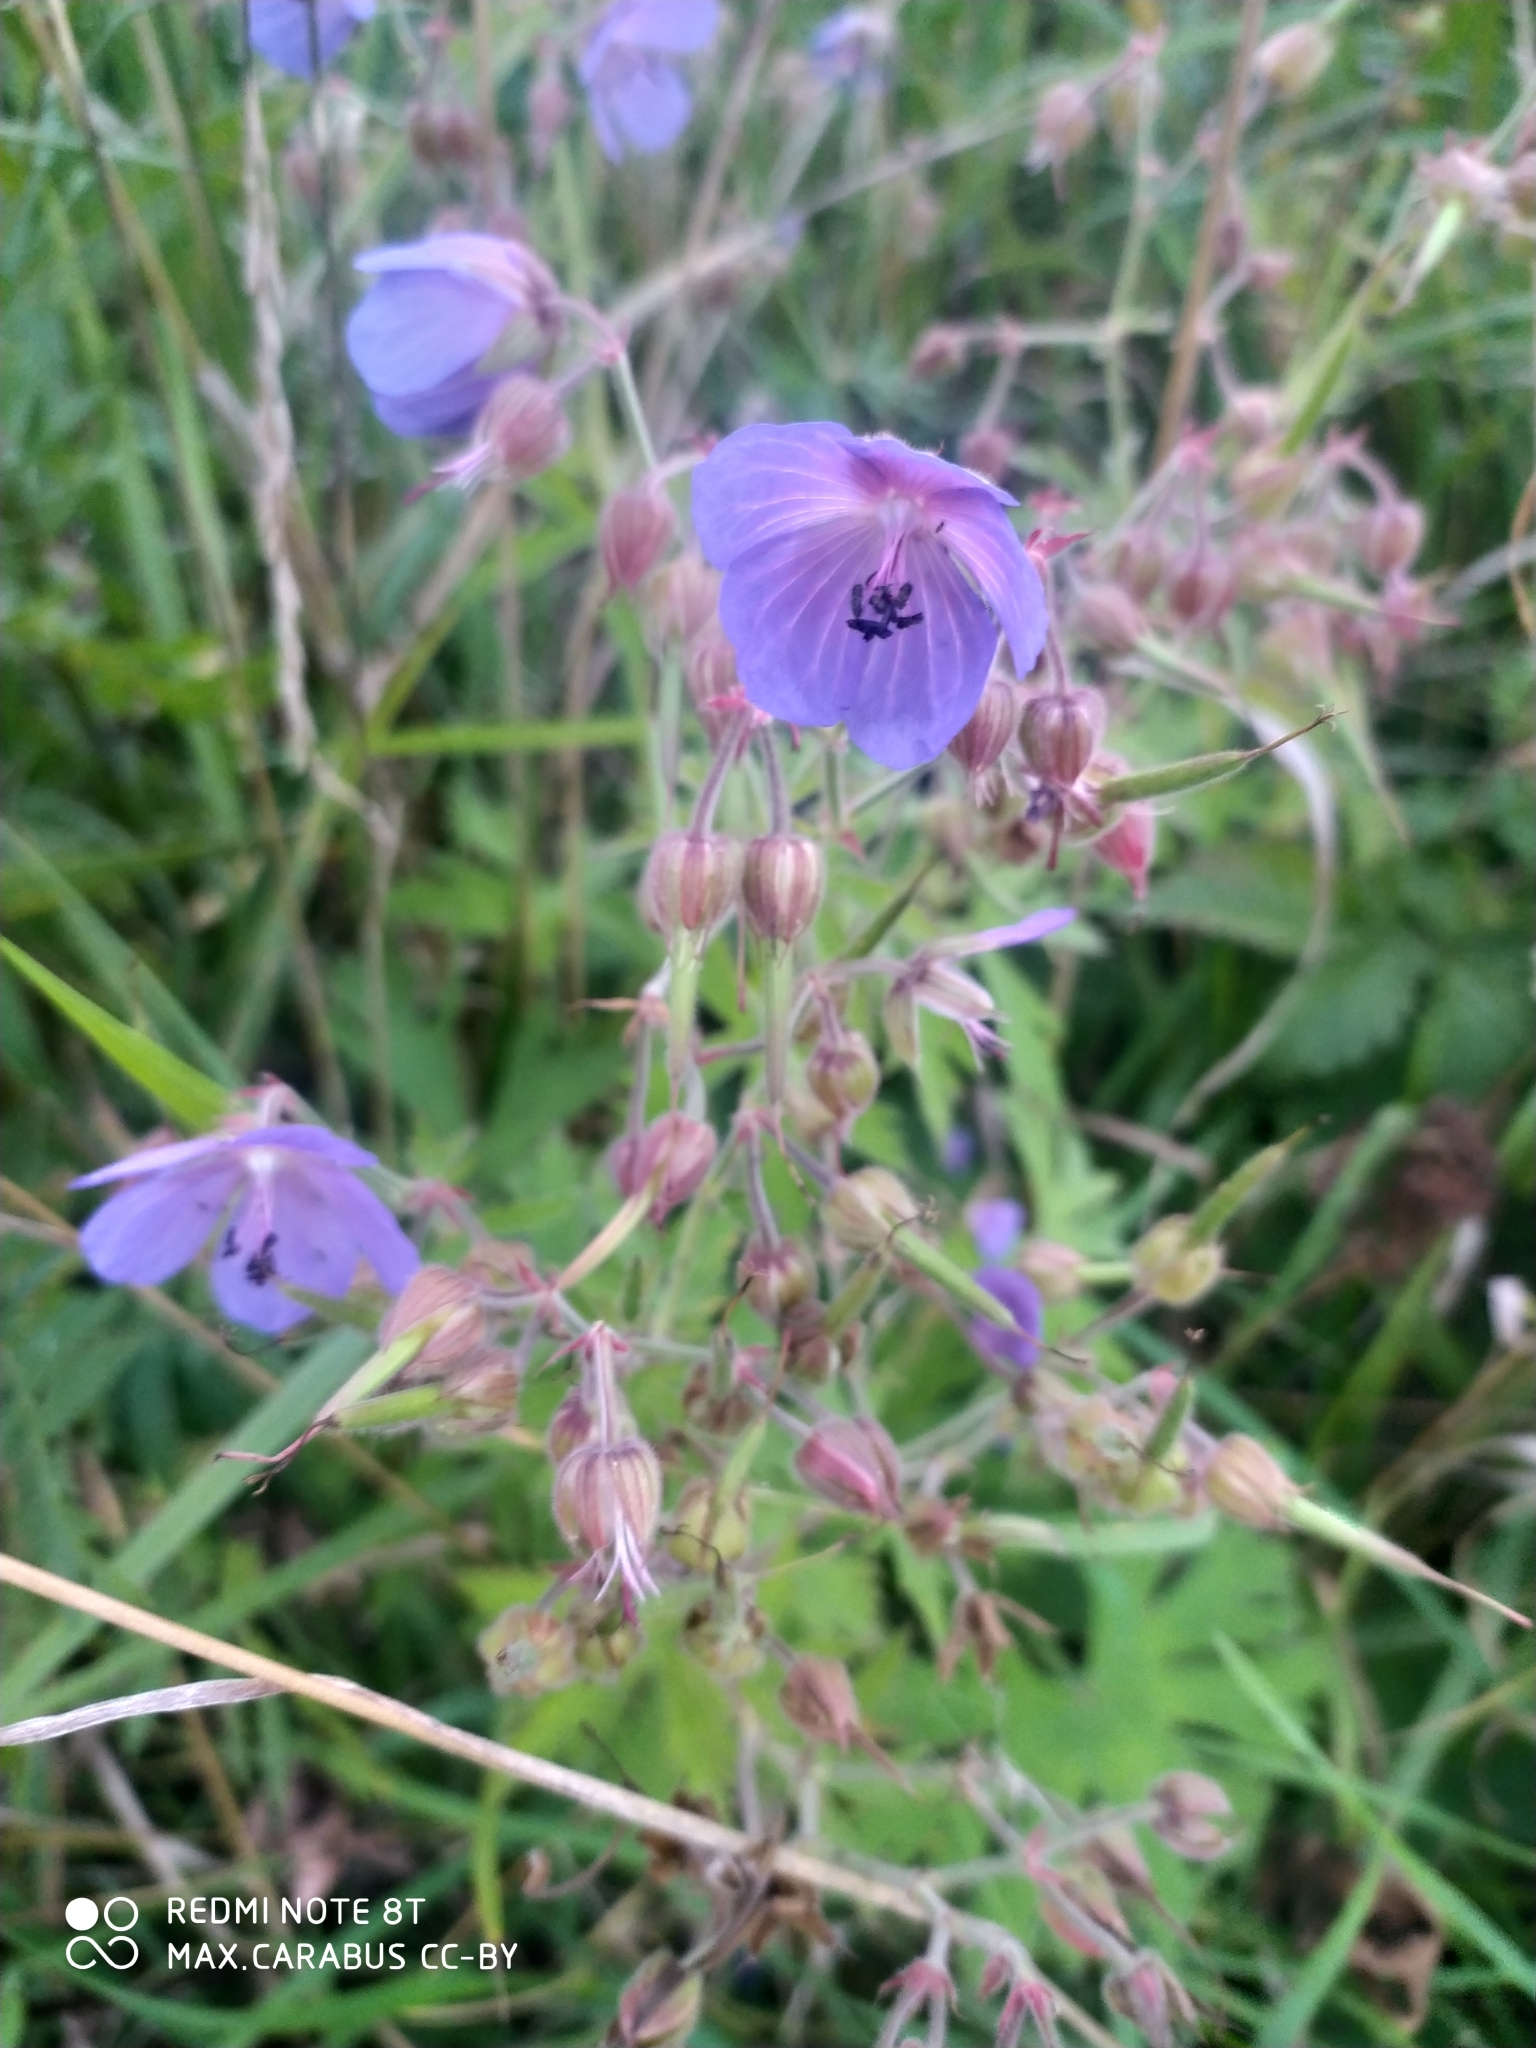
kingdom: Plantae
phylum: Tracheophyta
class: Magnoliopsida
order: Geraniales
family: Geraniaceae
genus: Geranium
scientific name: Geranium pratense
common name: Meadow crane's-bill
